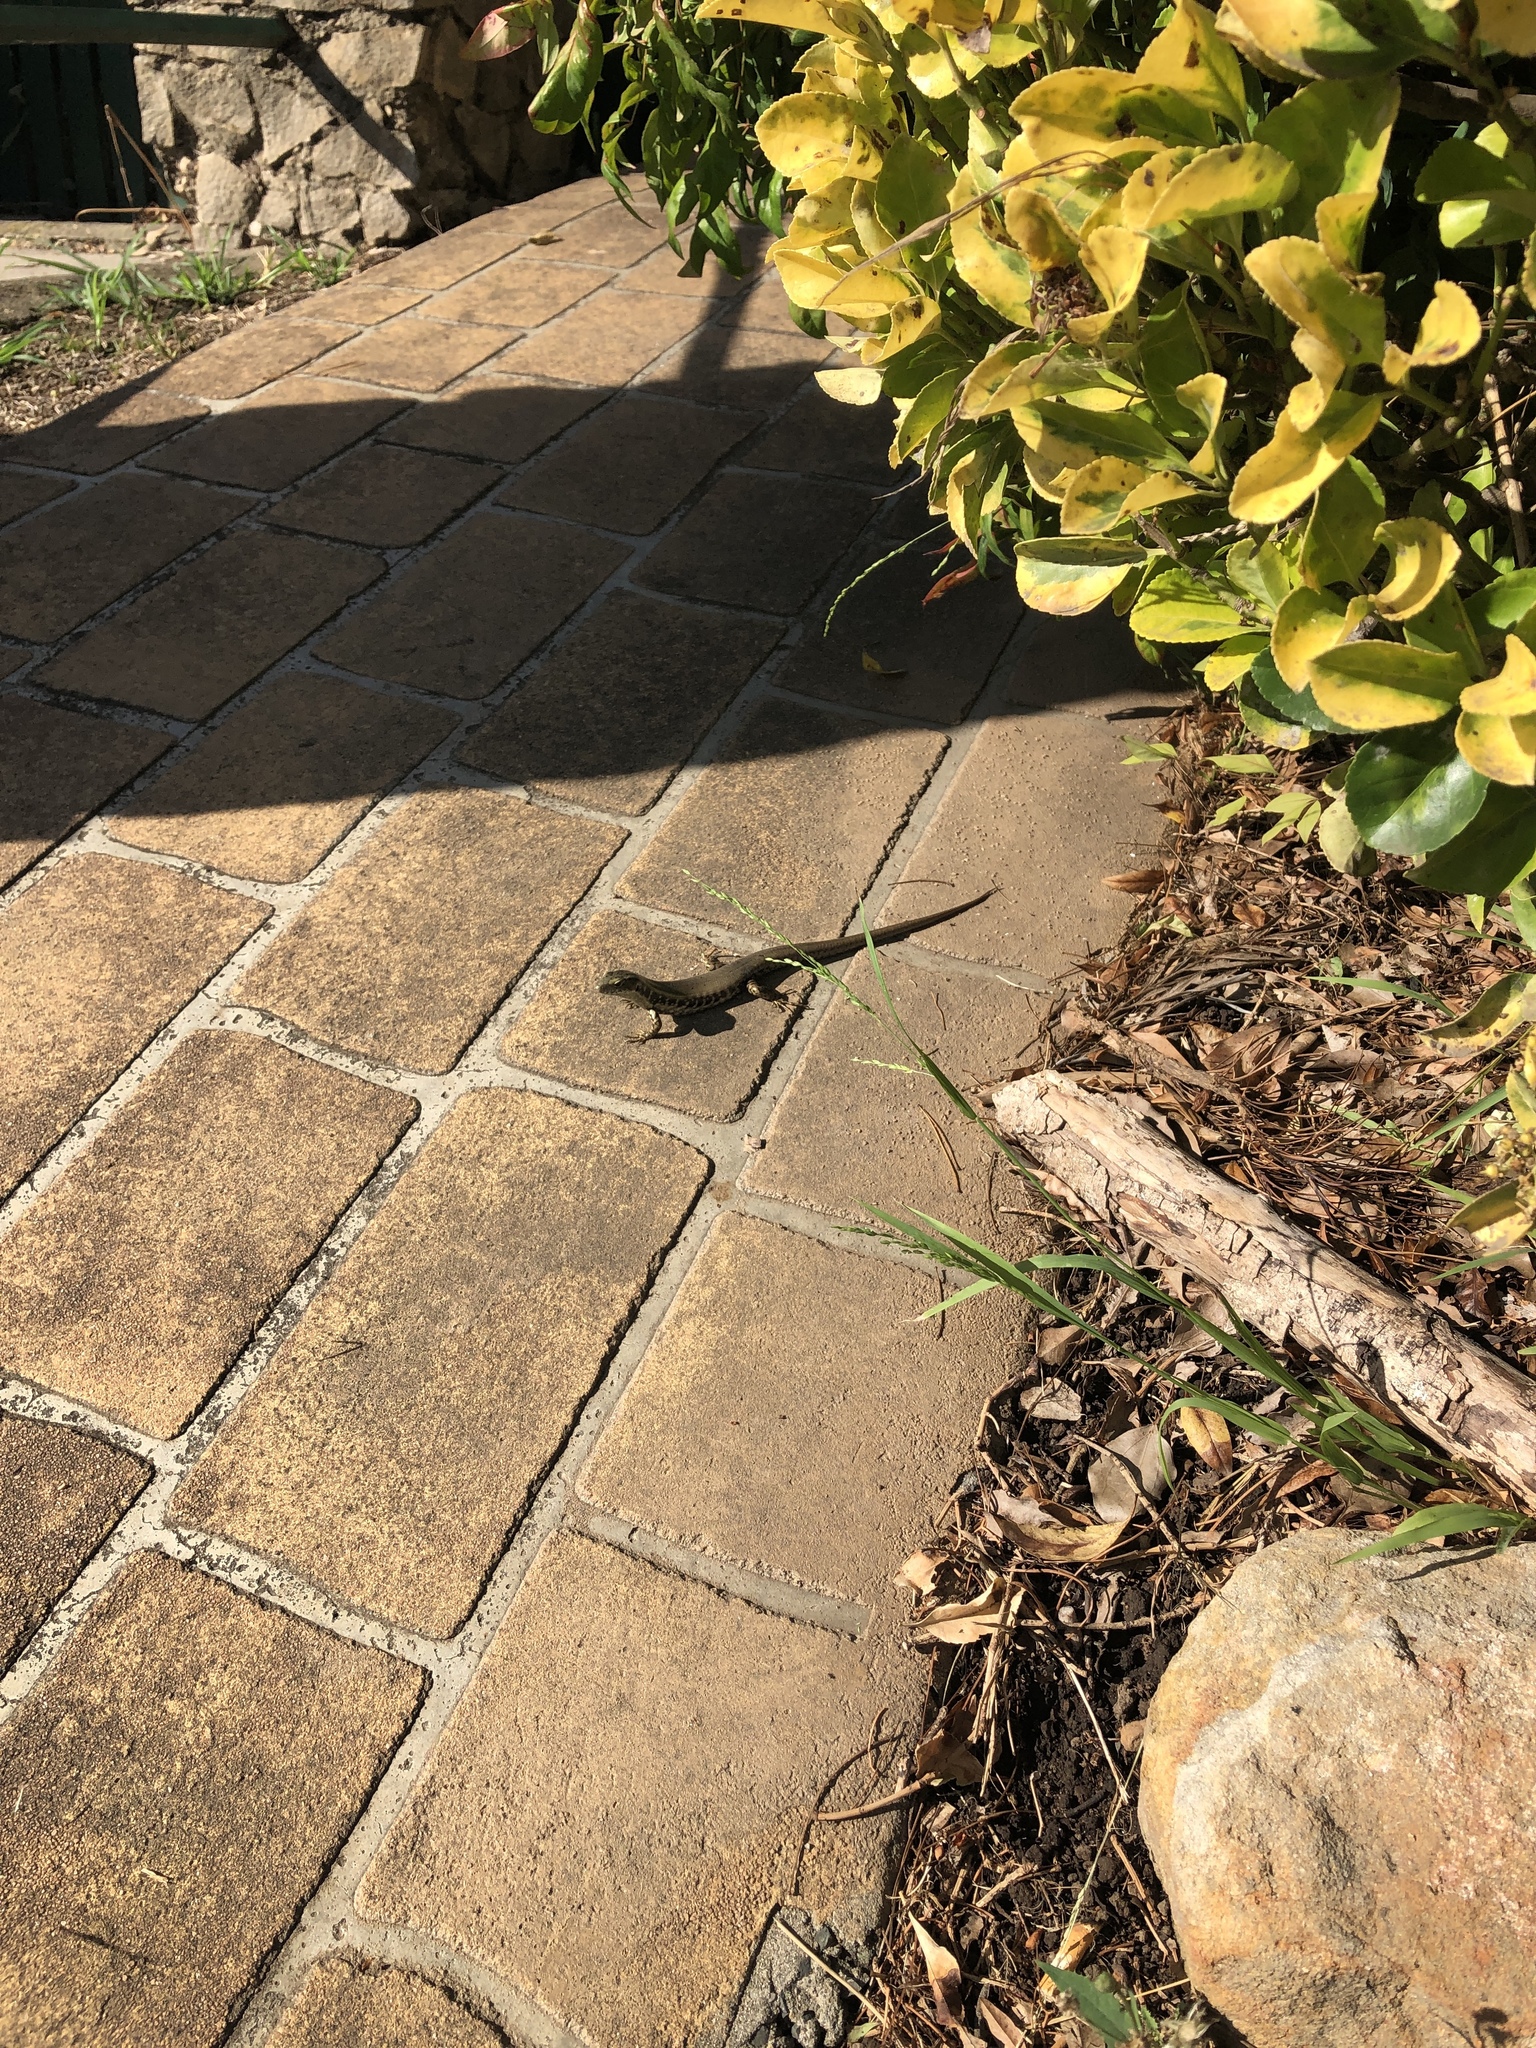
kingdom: Animalia
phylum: Chordata
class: Squamata
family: Scincidae
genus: Eulamprus
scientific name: Eulamprus quoyii
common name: Eastern water skink
